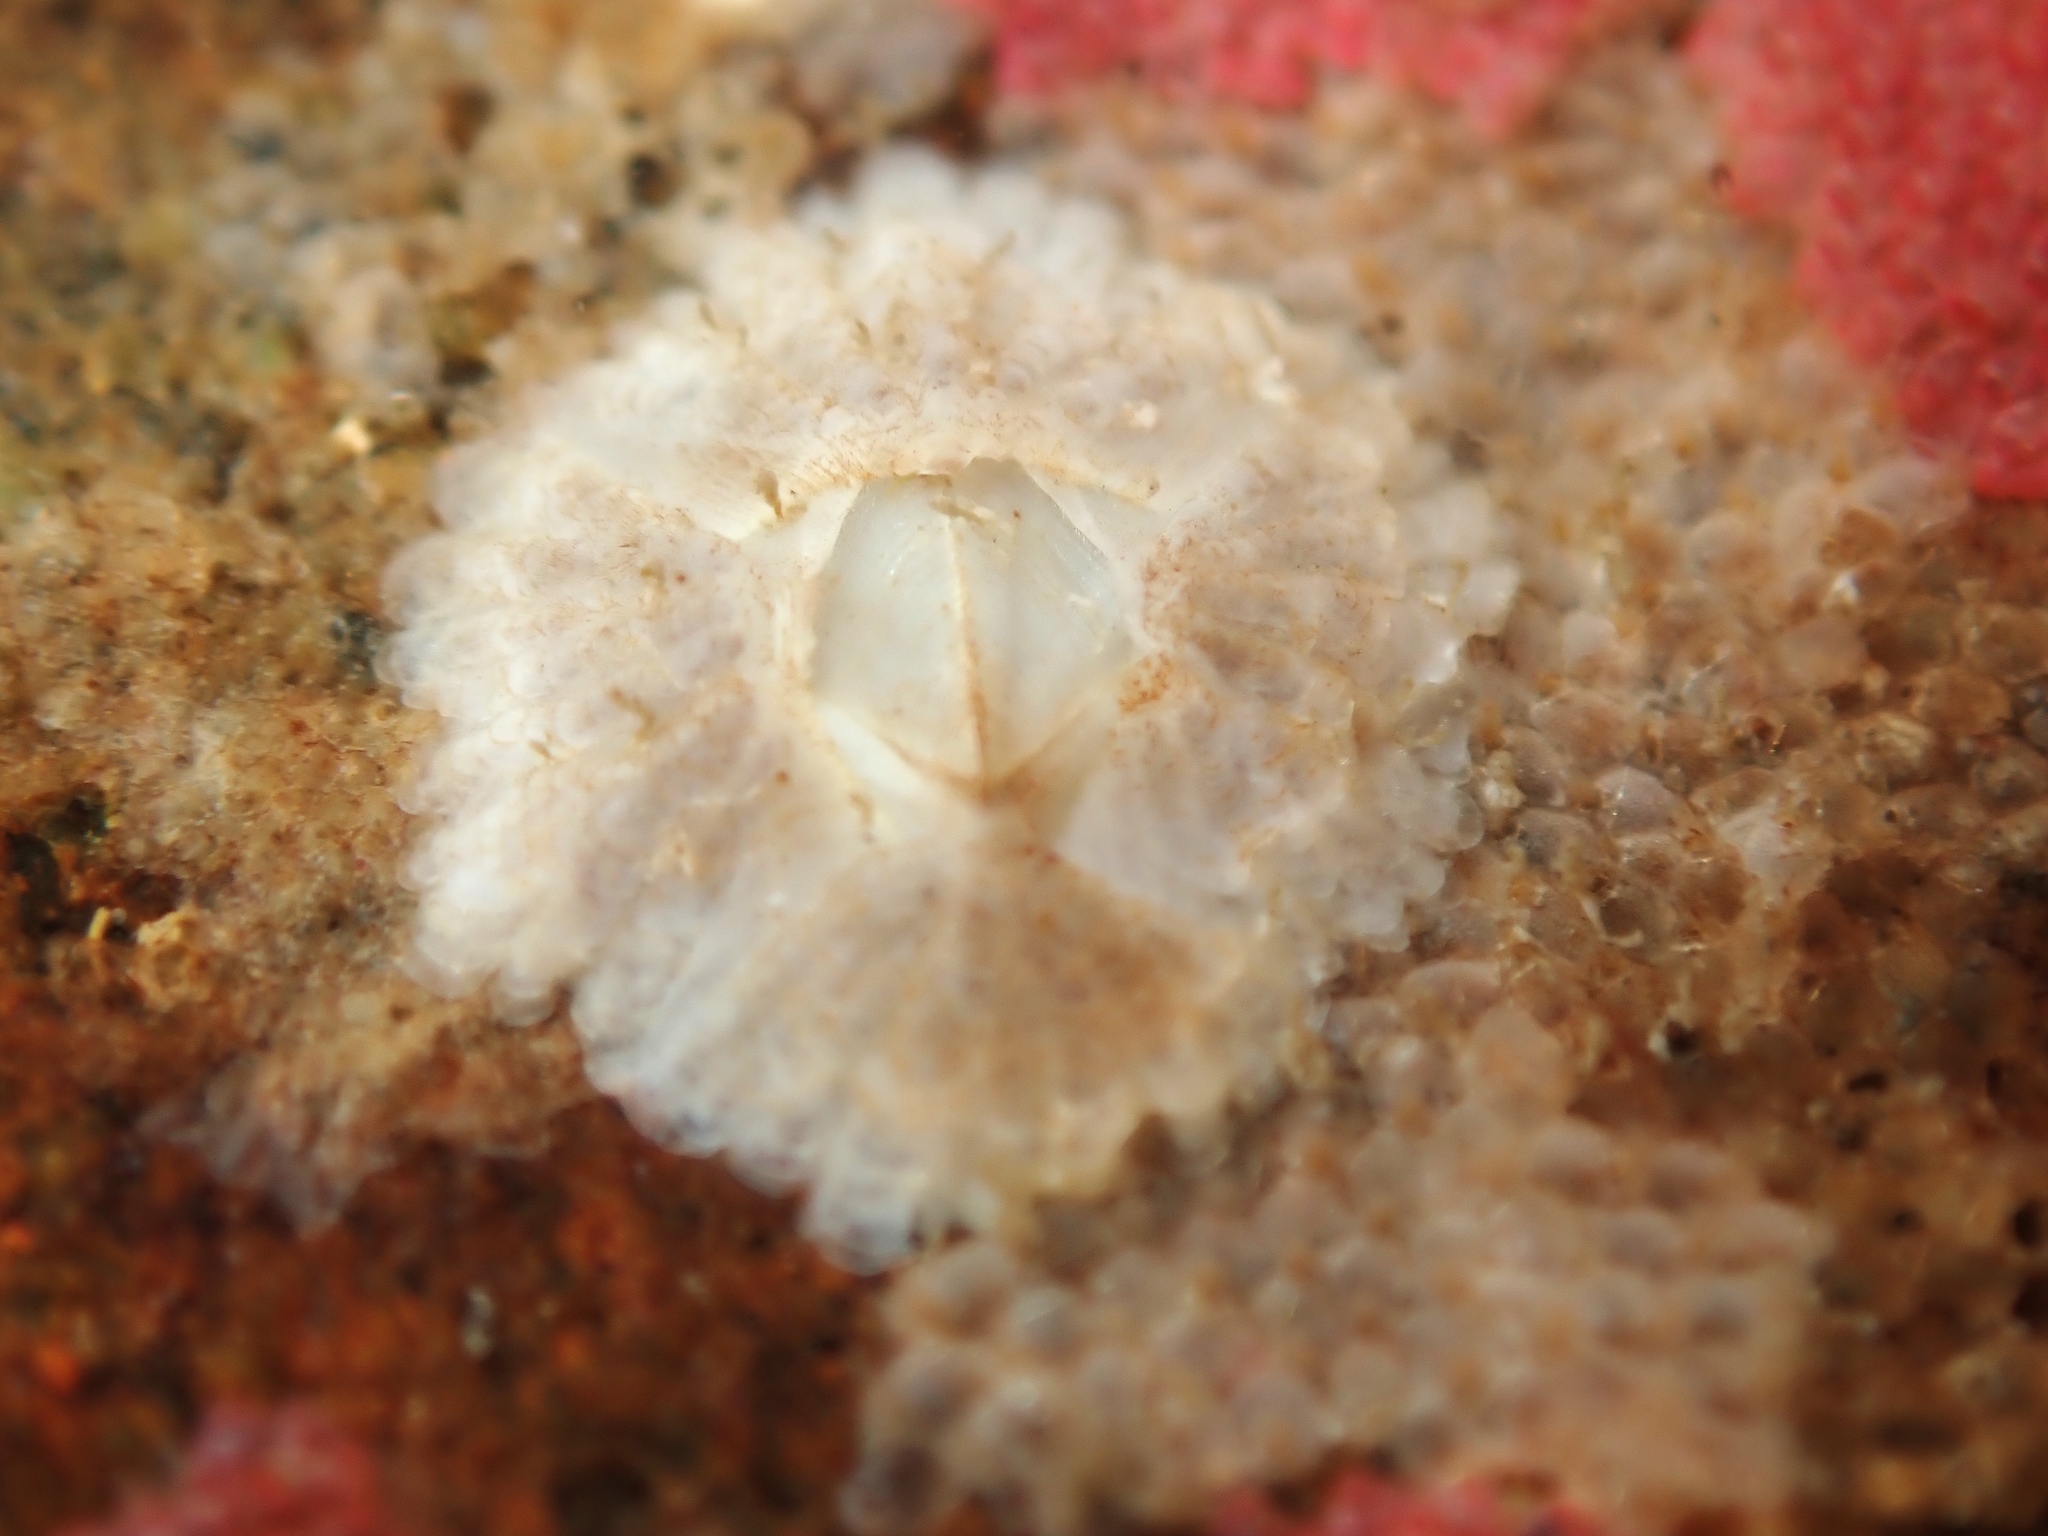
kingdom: Animalia
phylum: Arthropoda
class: Maxillopoda
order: Sessilia
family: Tetraclitidae
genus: Tetraclitella
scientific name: Tetraclitella depressa
